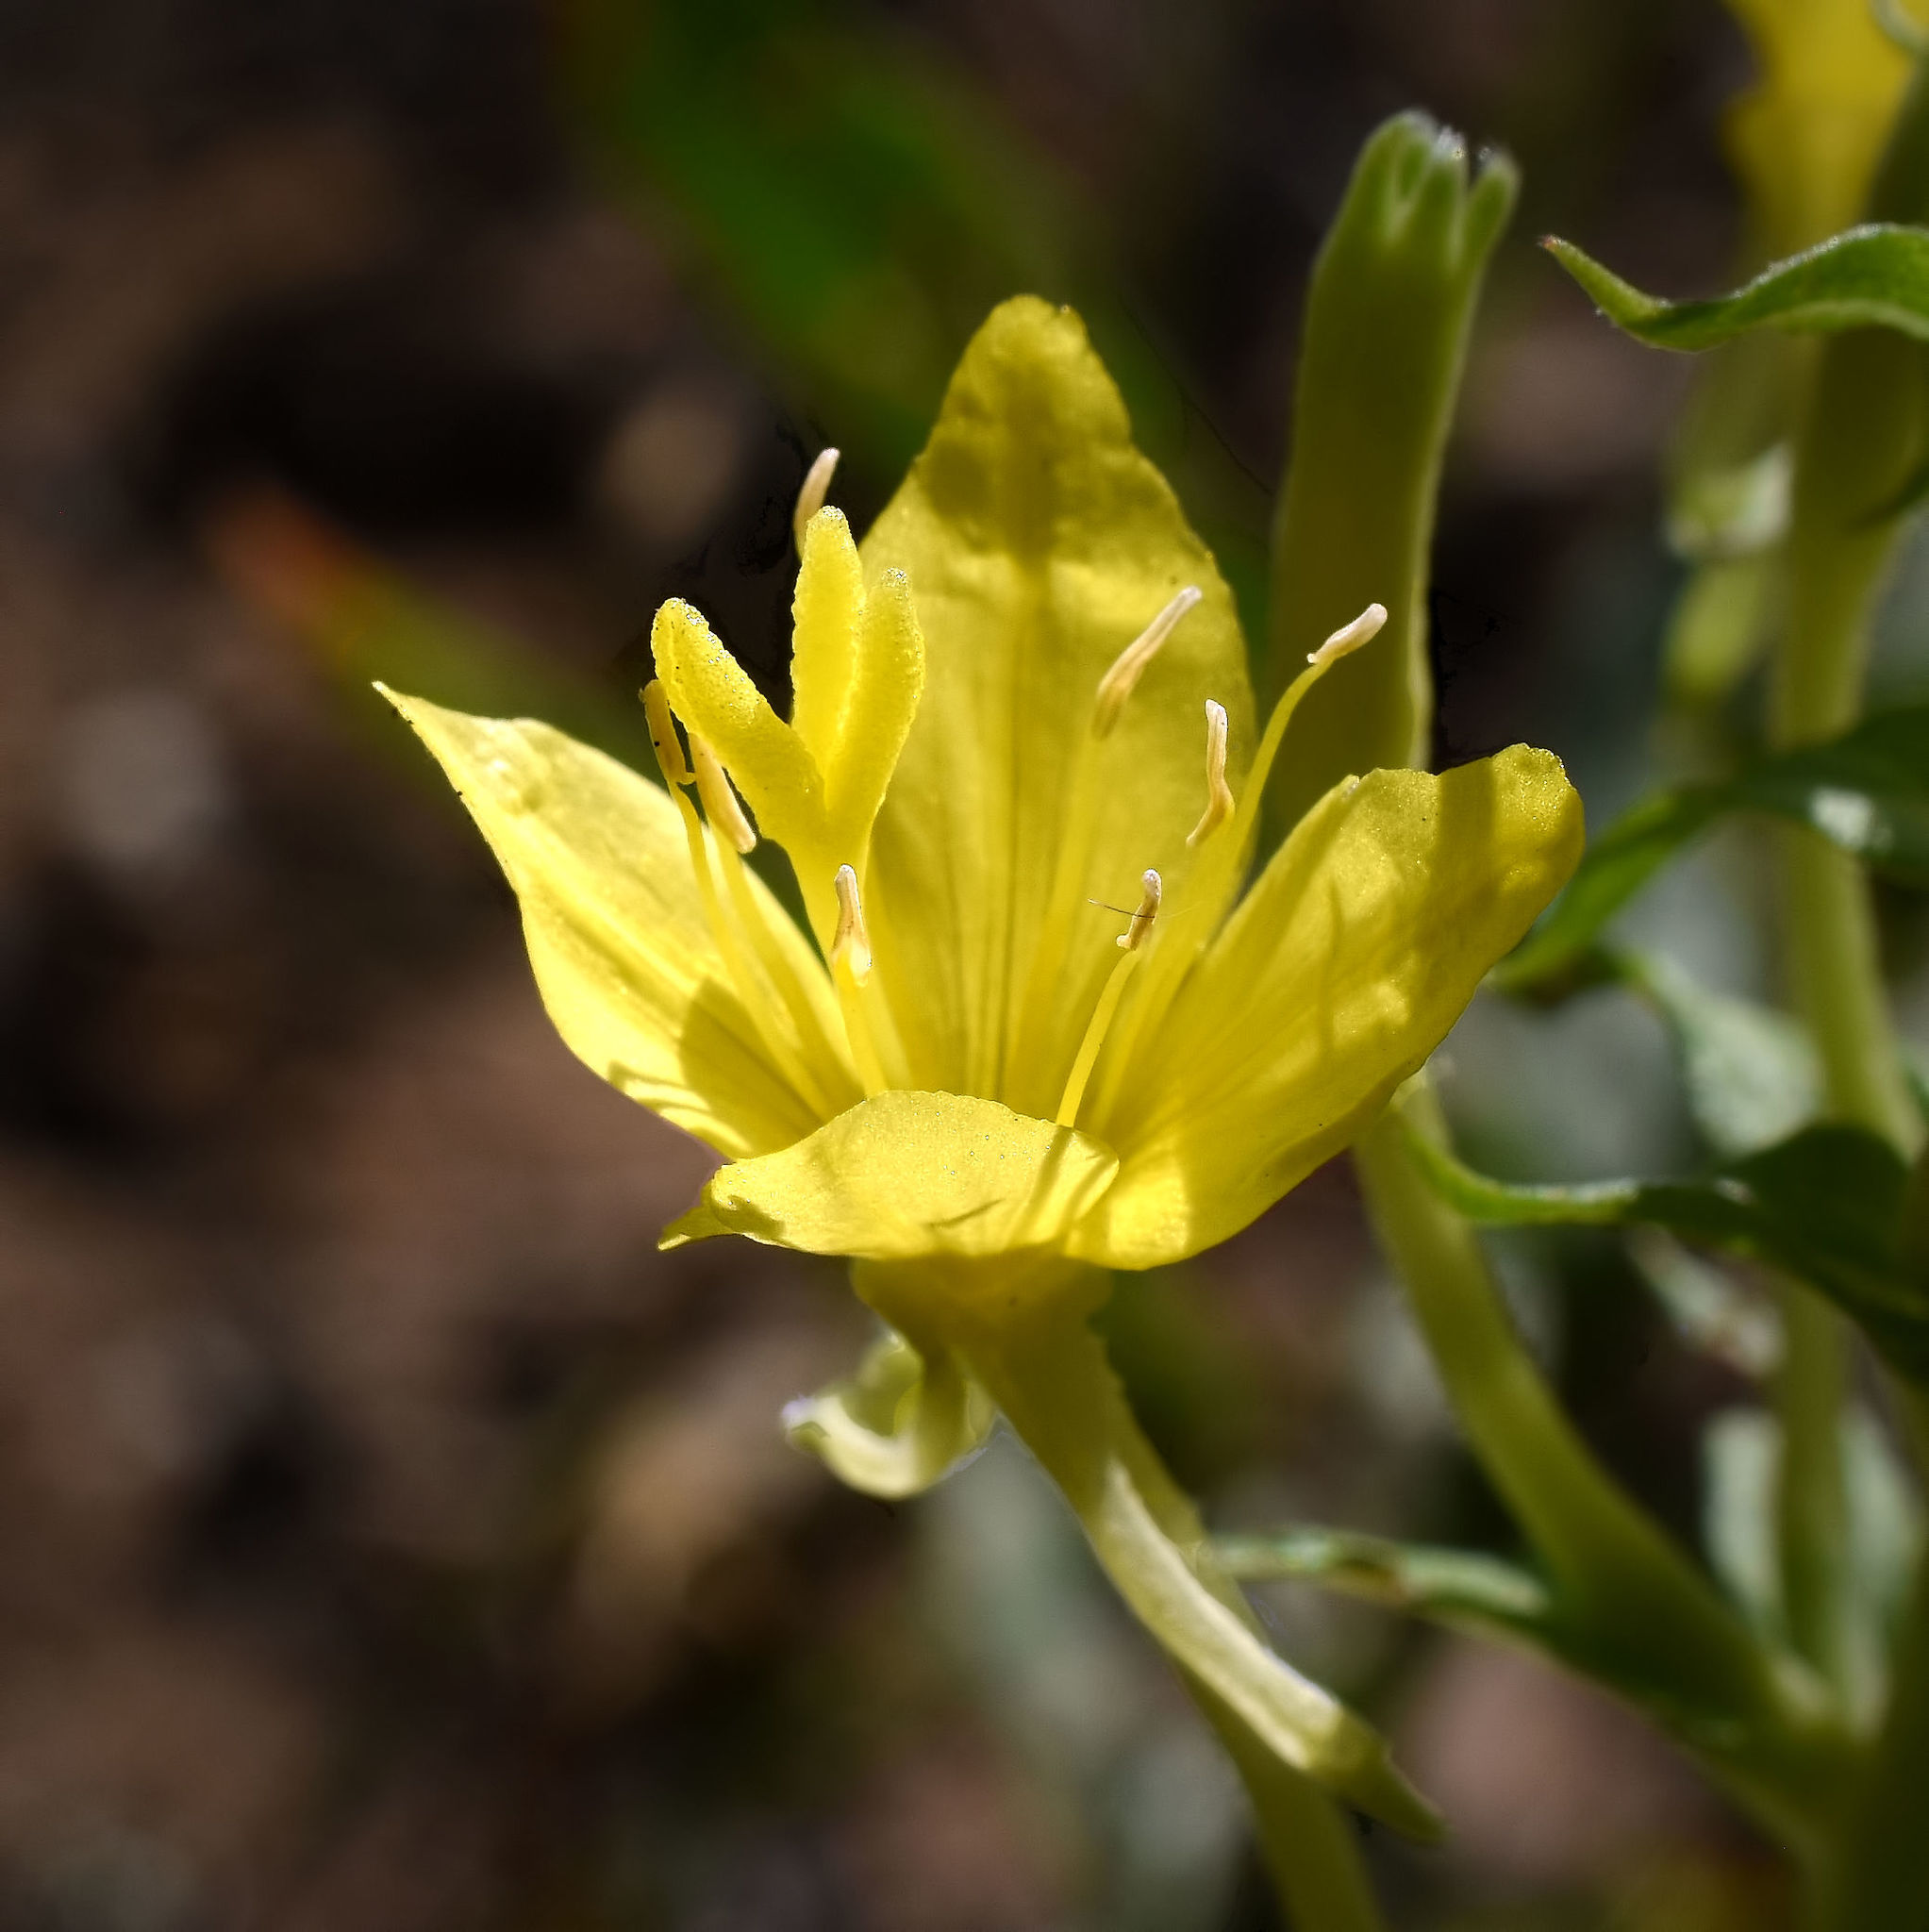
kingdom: Plantae
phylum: Tracheophyta
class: Magnoliopsida
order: Myrtales
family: Onagraceae
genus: Oenothera
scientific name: Oenothera clelandii
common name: Cleland's evening-primrose
